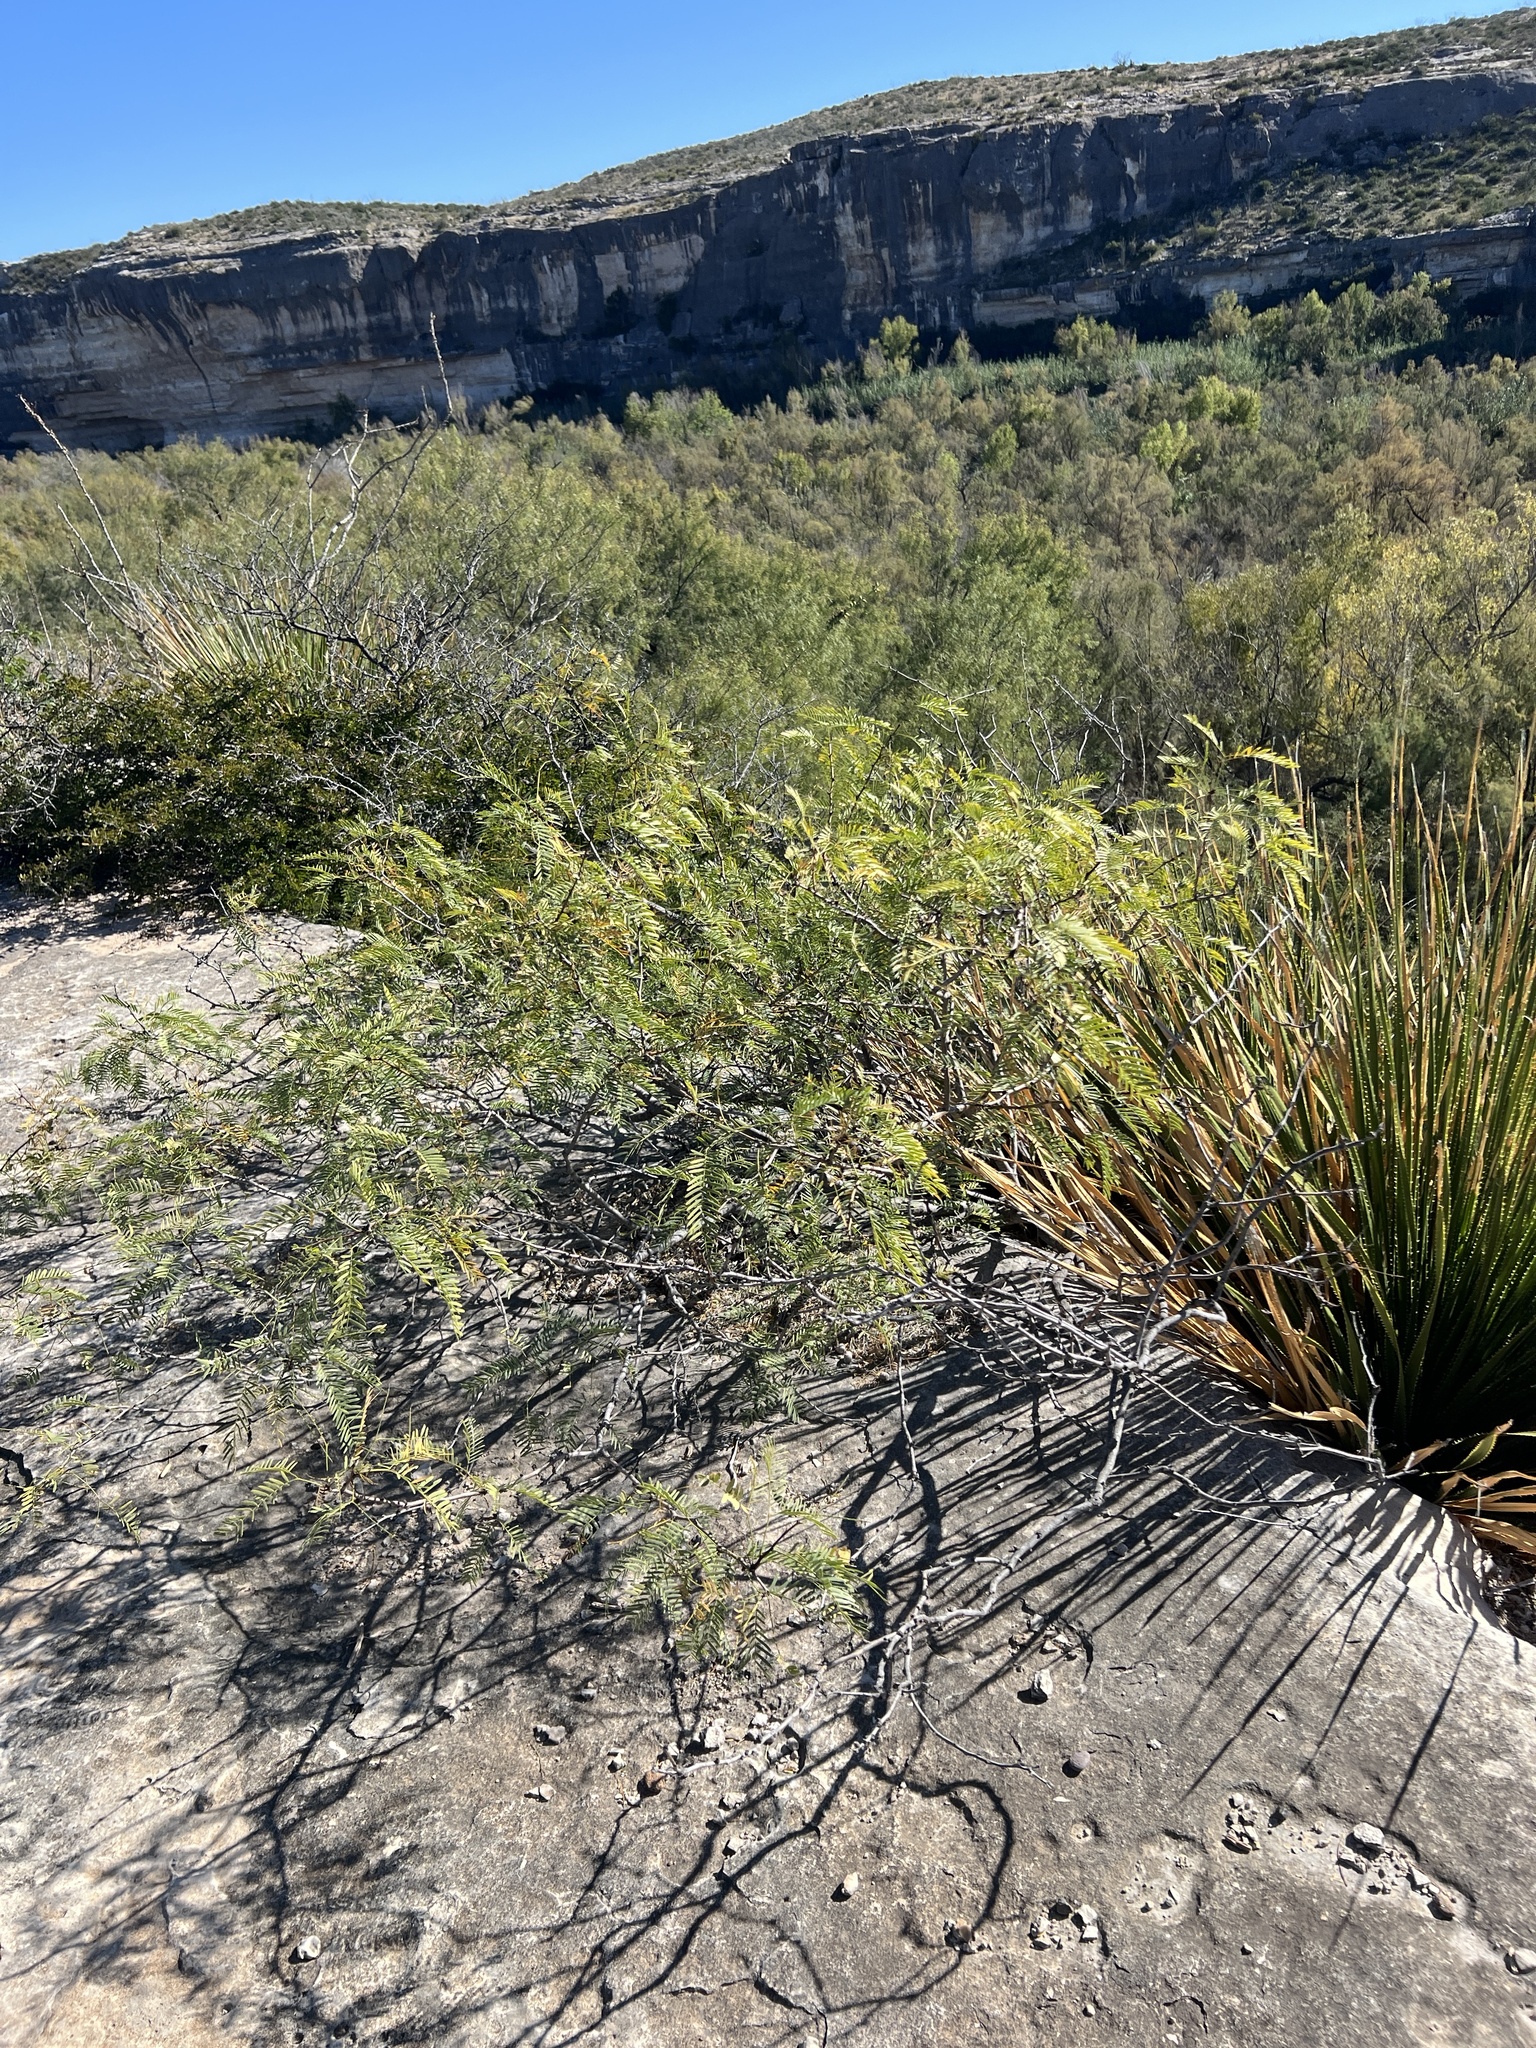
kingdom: Plantae
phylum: Tracheophyta
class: Magnoliopsida
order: Fabales
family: Fabaceae
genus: Prosopis
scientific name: Prosopis glandulosa
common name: Honey mesquite
